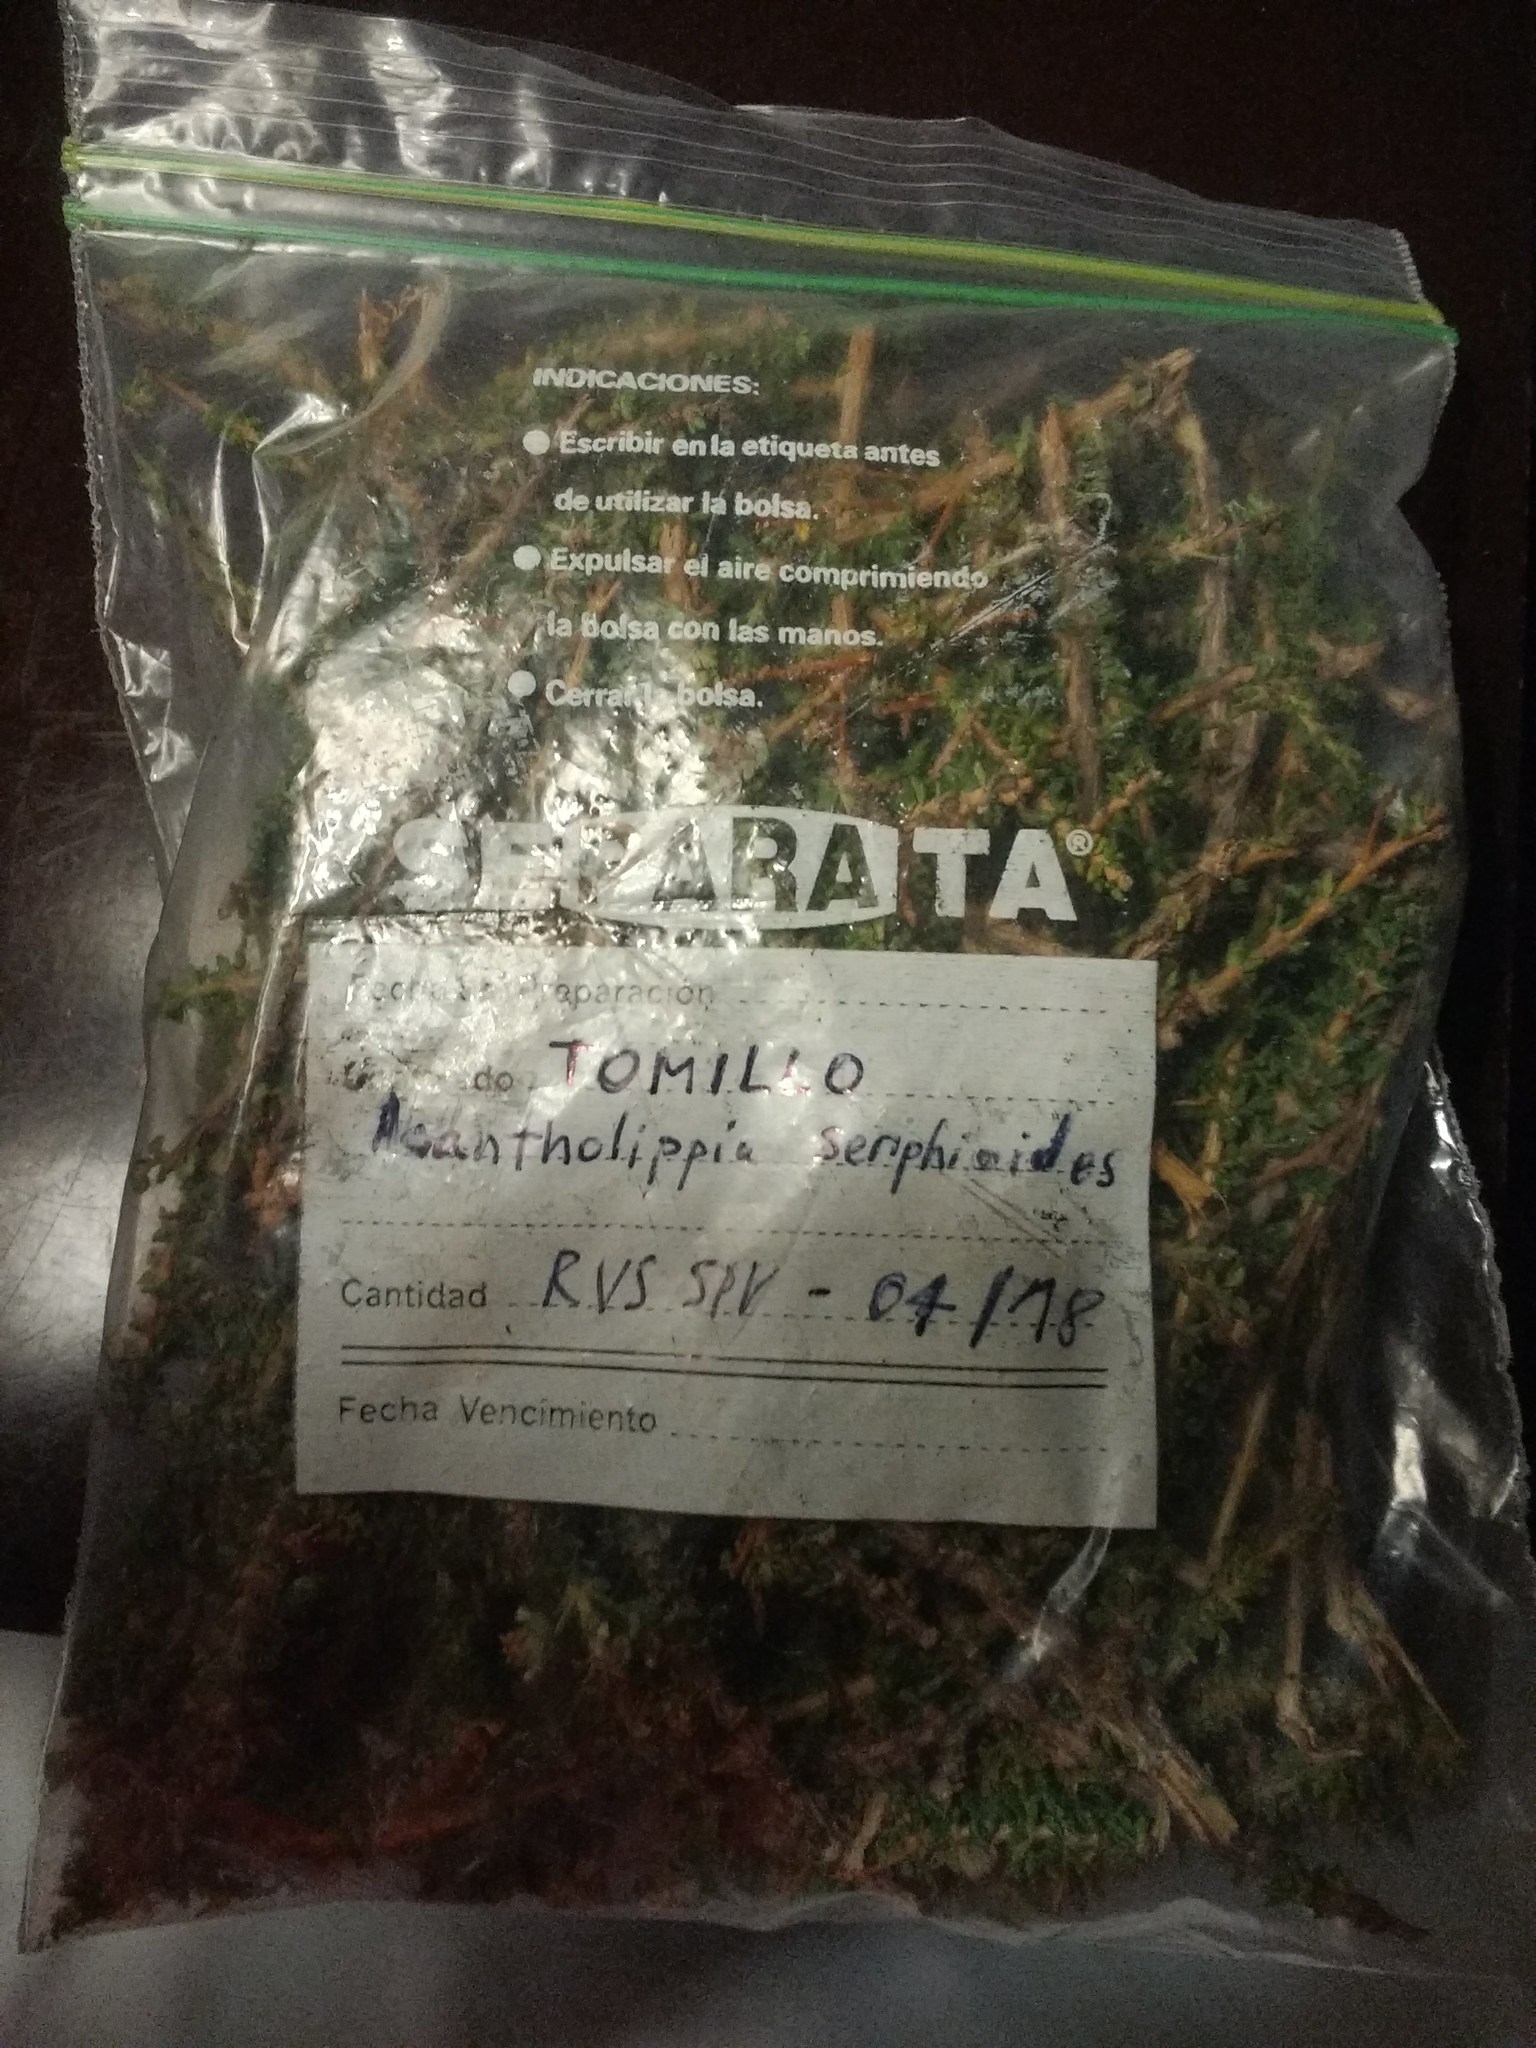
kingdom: Plantae
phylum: Tracheophyta
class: Magnoliopsida
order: Lamiales
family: Verbenaceae
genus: Acantholippia
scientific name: Acantholippia seriphioides
